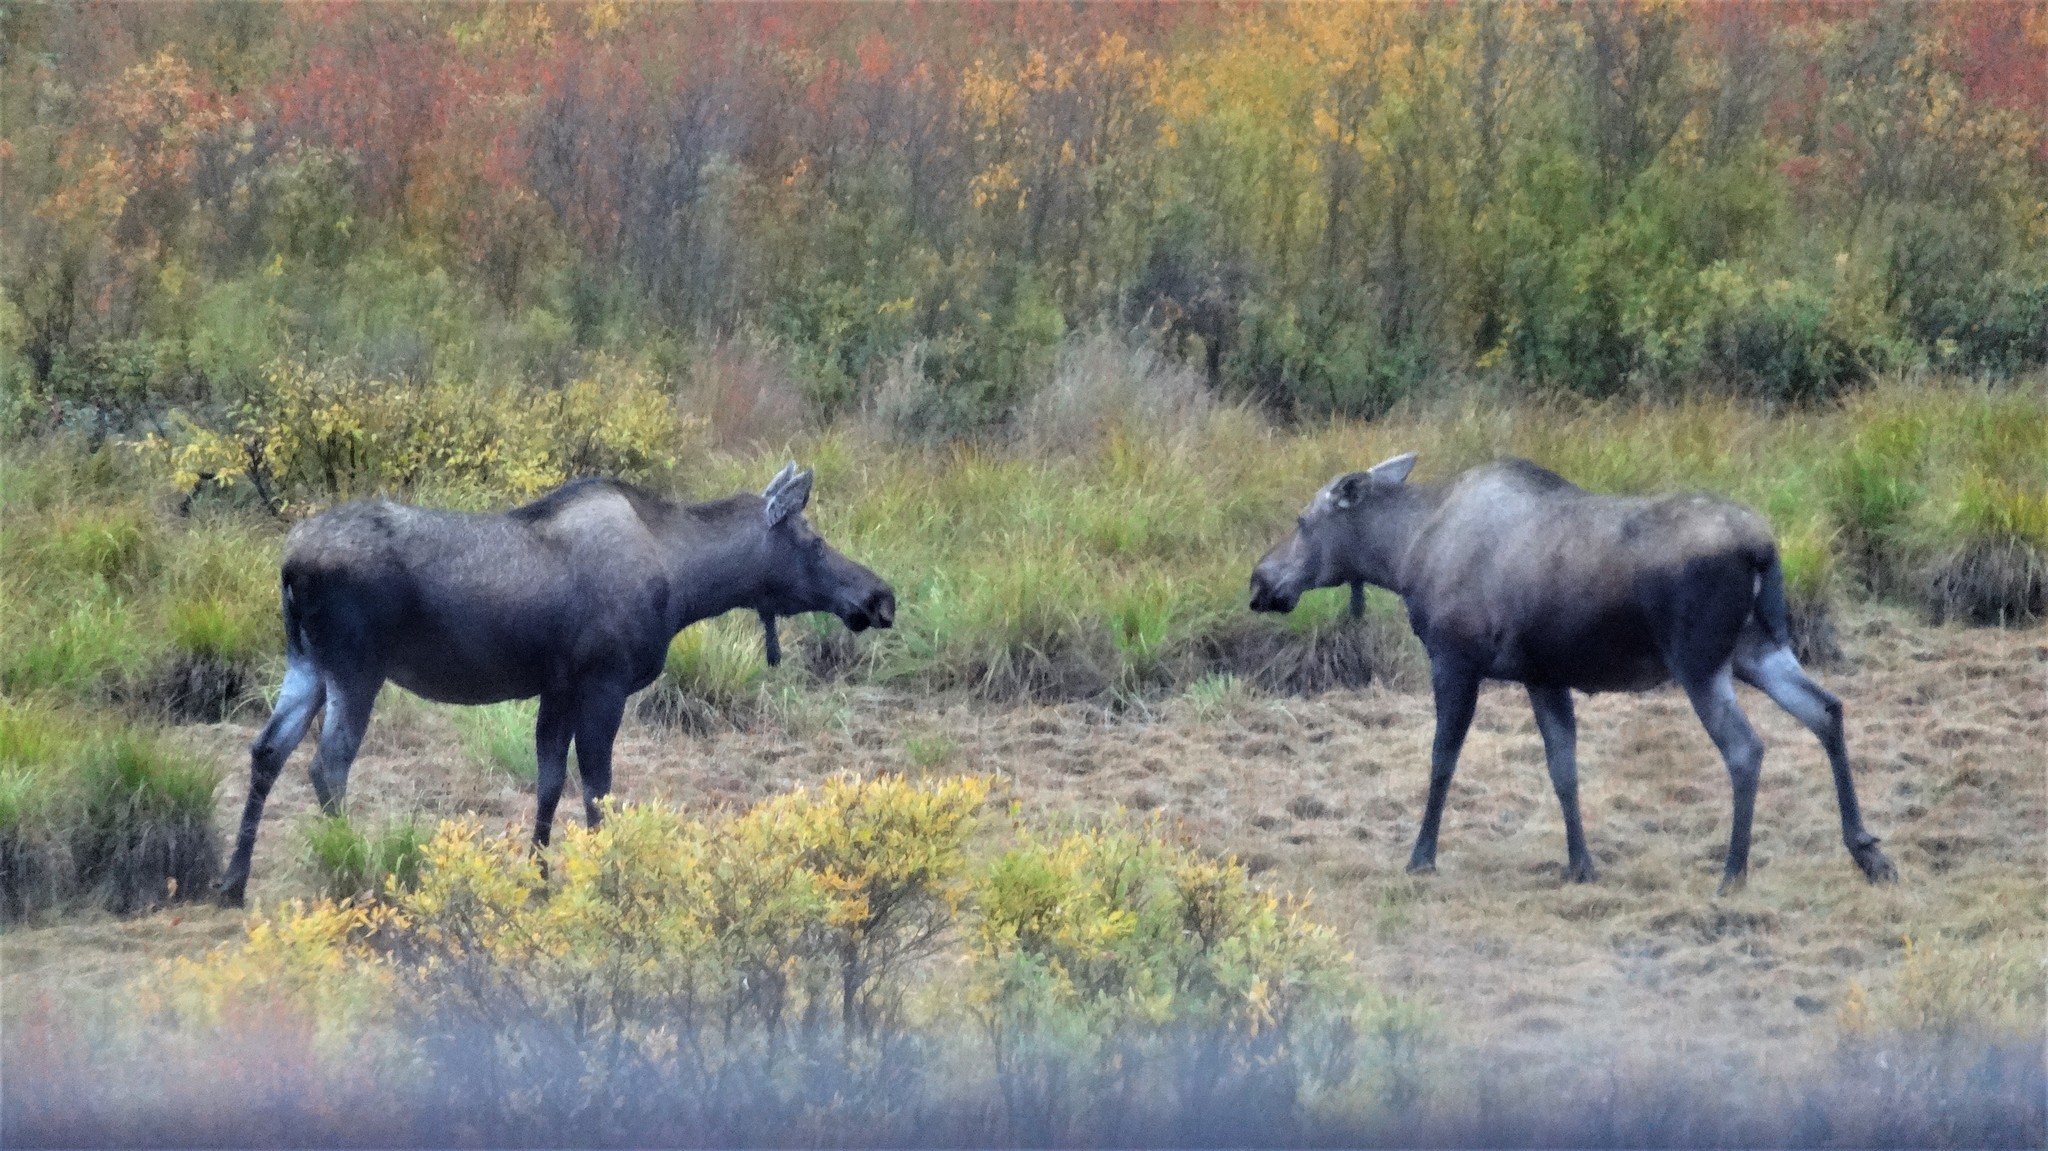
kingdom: Animalia
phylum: Chordata
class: Mammalia
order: Artiodactyla
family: Cervidae
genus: Alces
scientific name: Alces alces
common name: Moose
